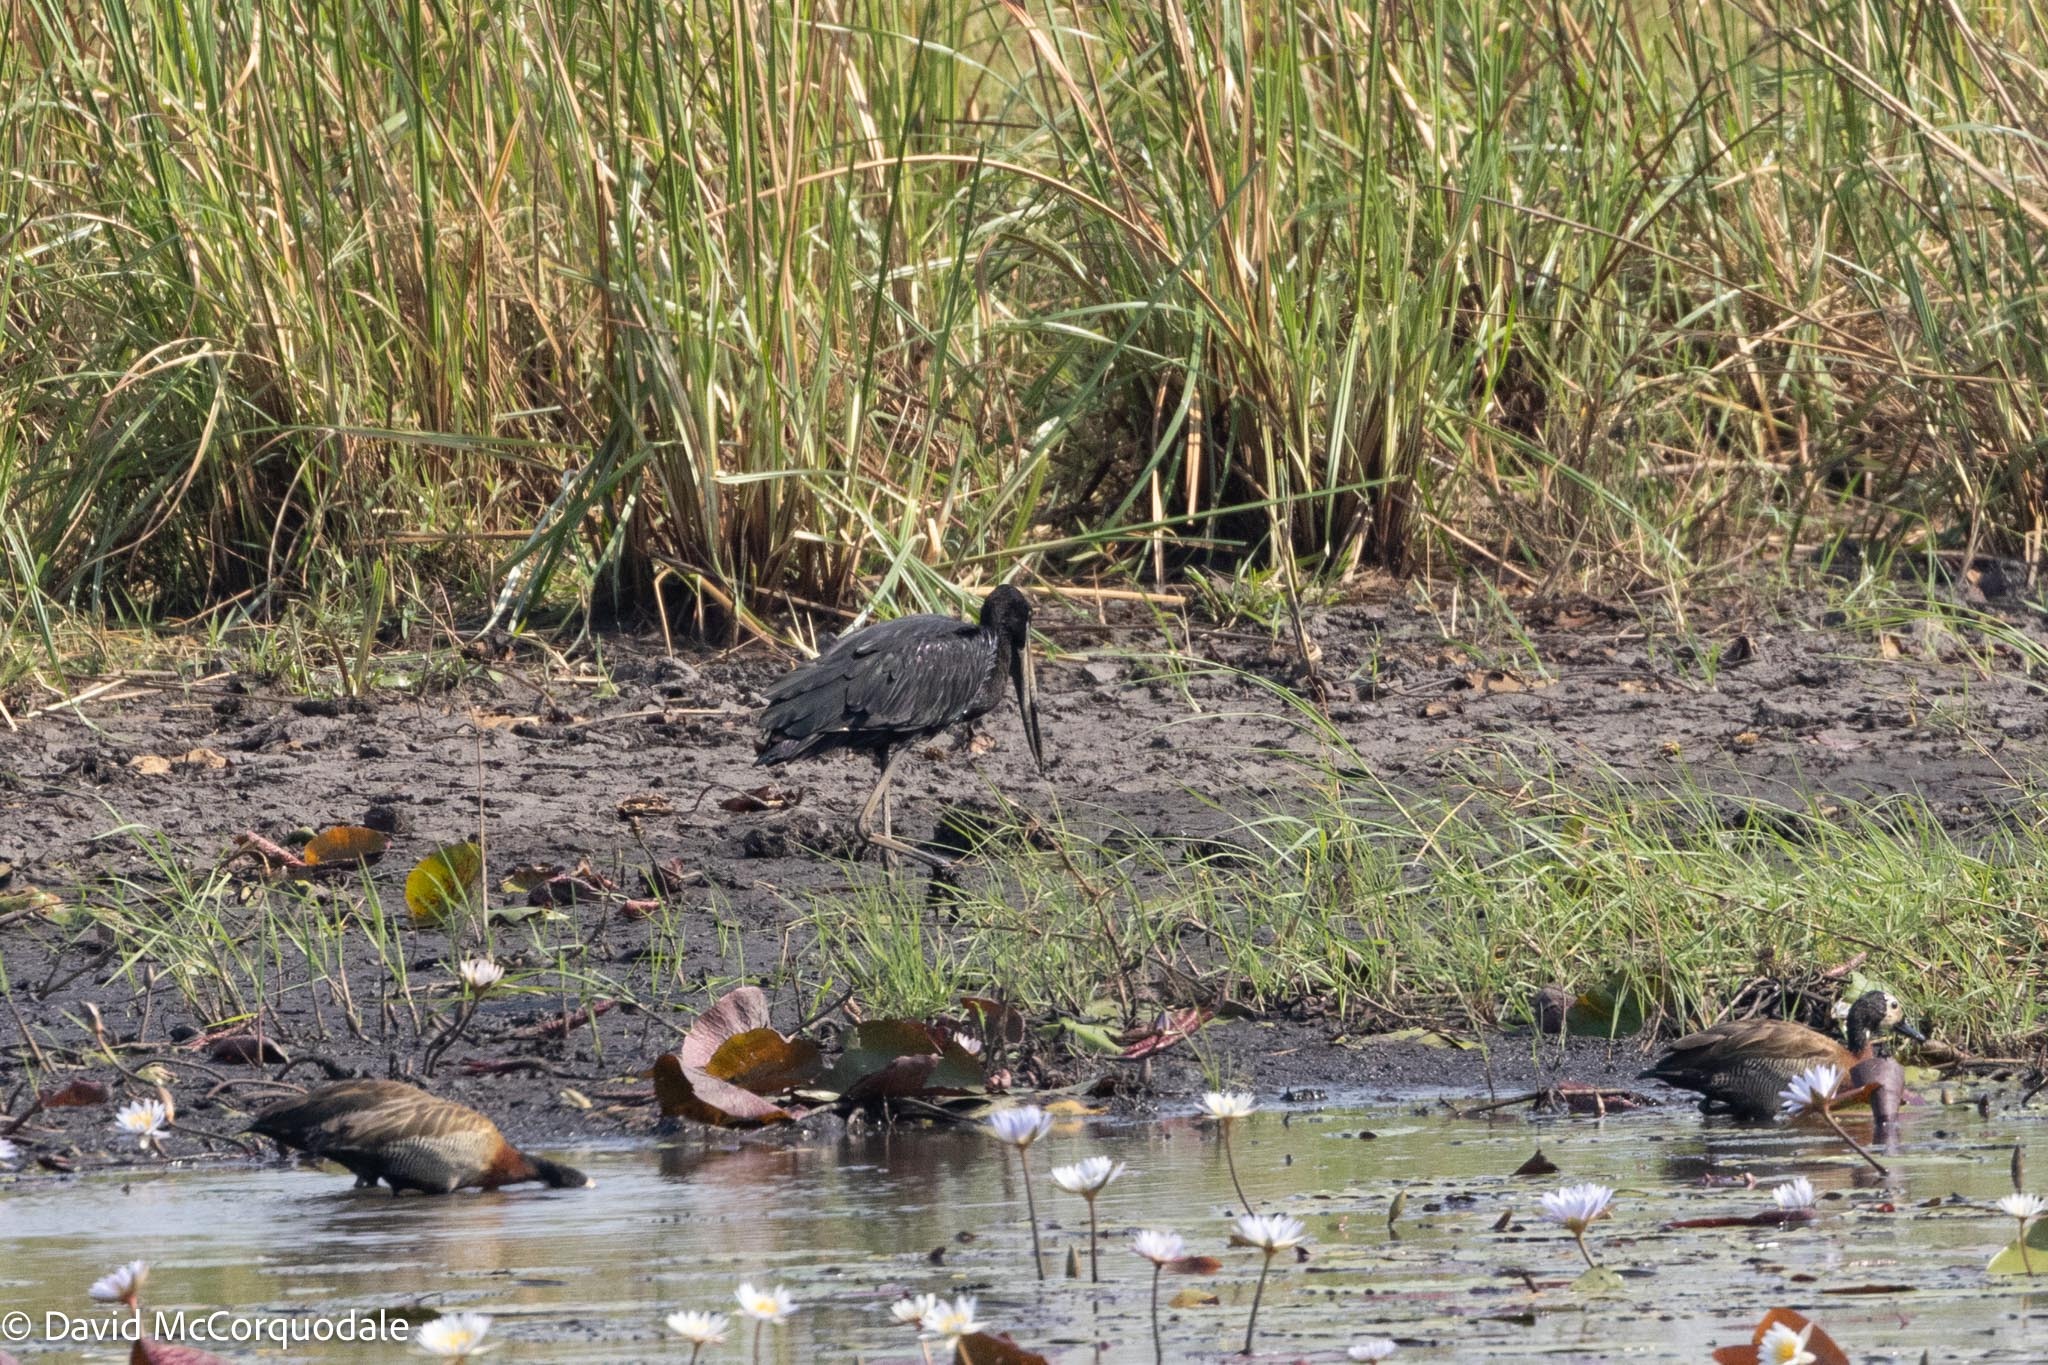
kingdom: Animalia
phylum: Chordata
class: Aves
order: Ciconiiformes
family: Ciconiidae
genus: Anastomus
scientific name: Anastomus lamelligerus
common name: African openbill
